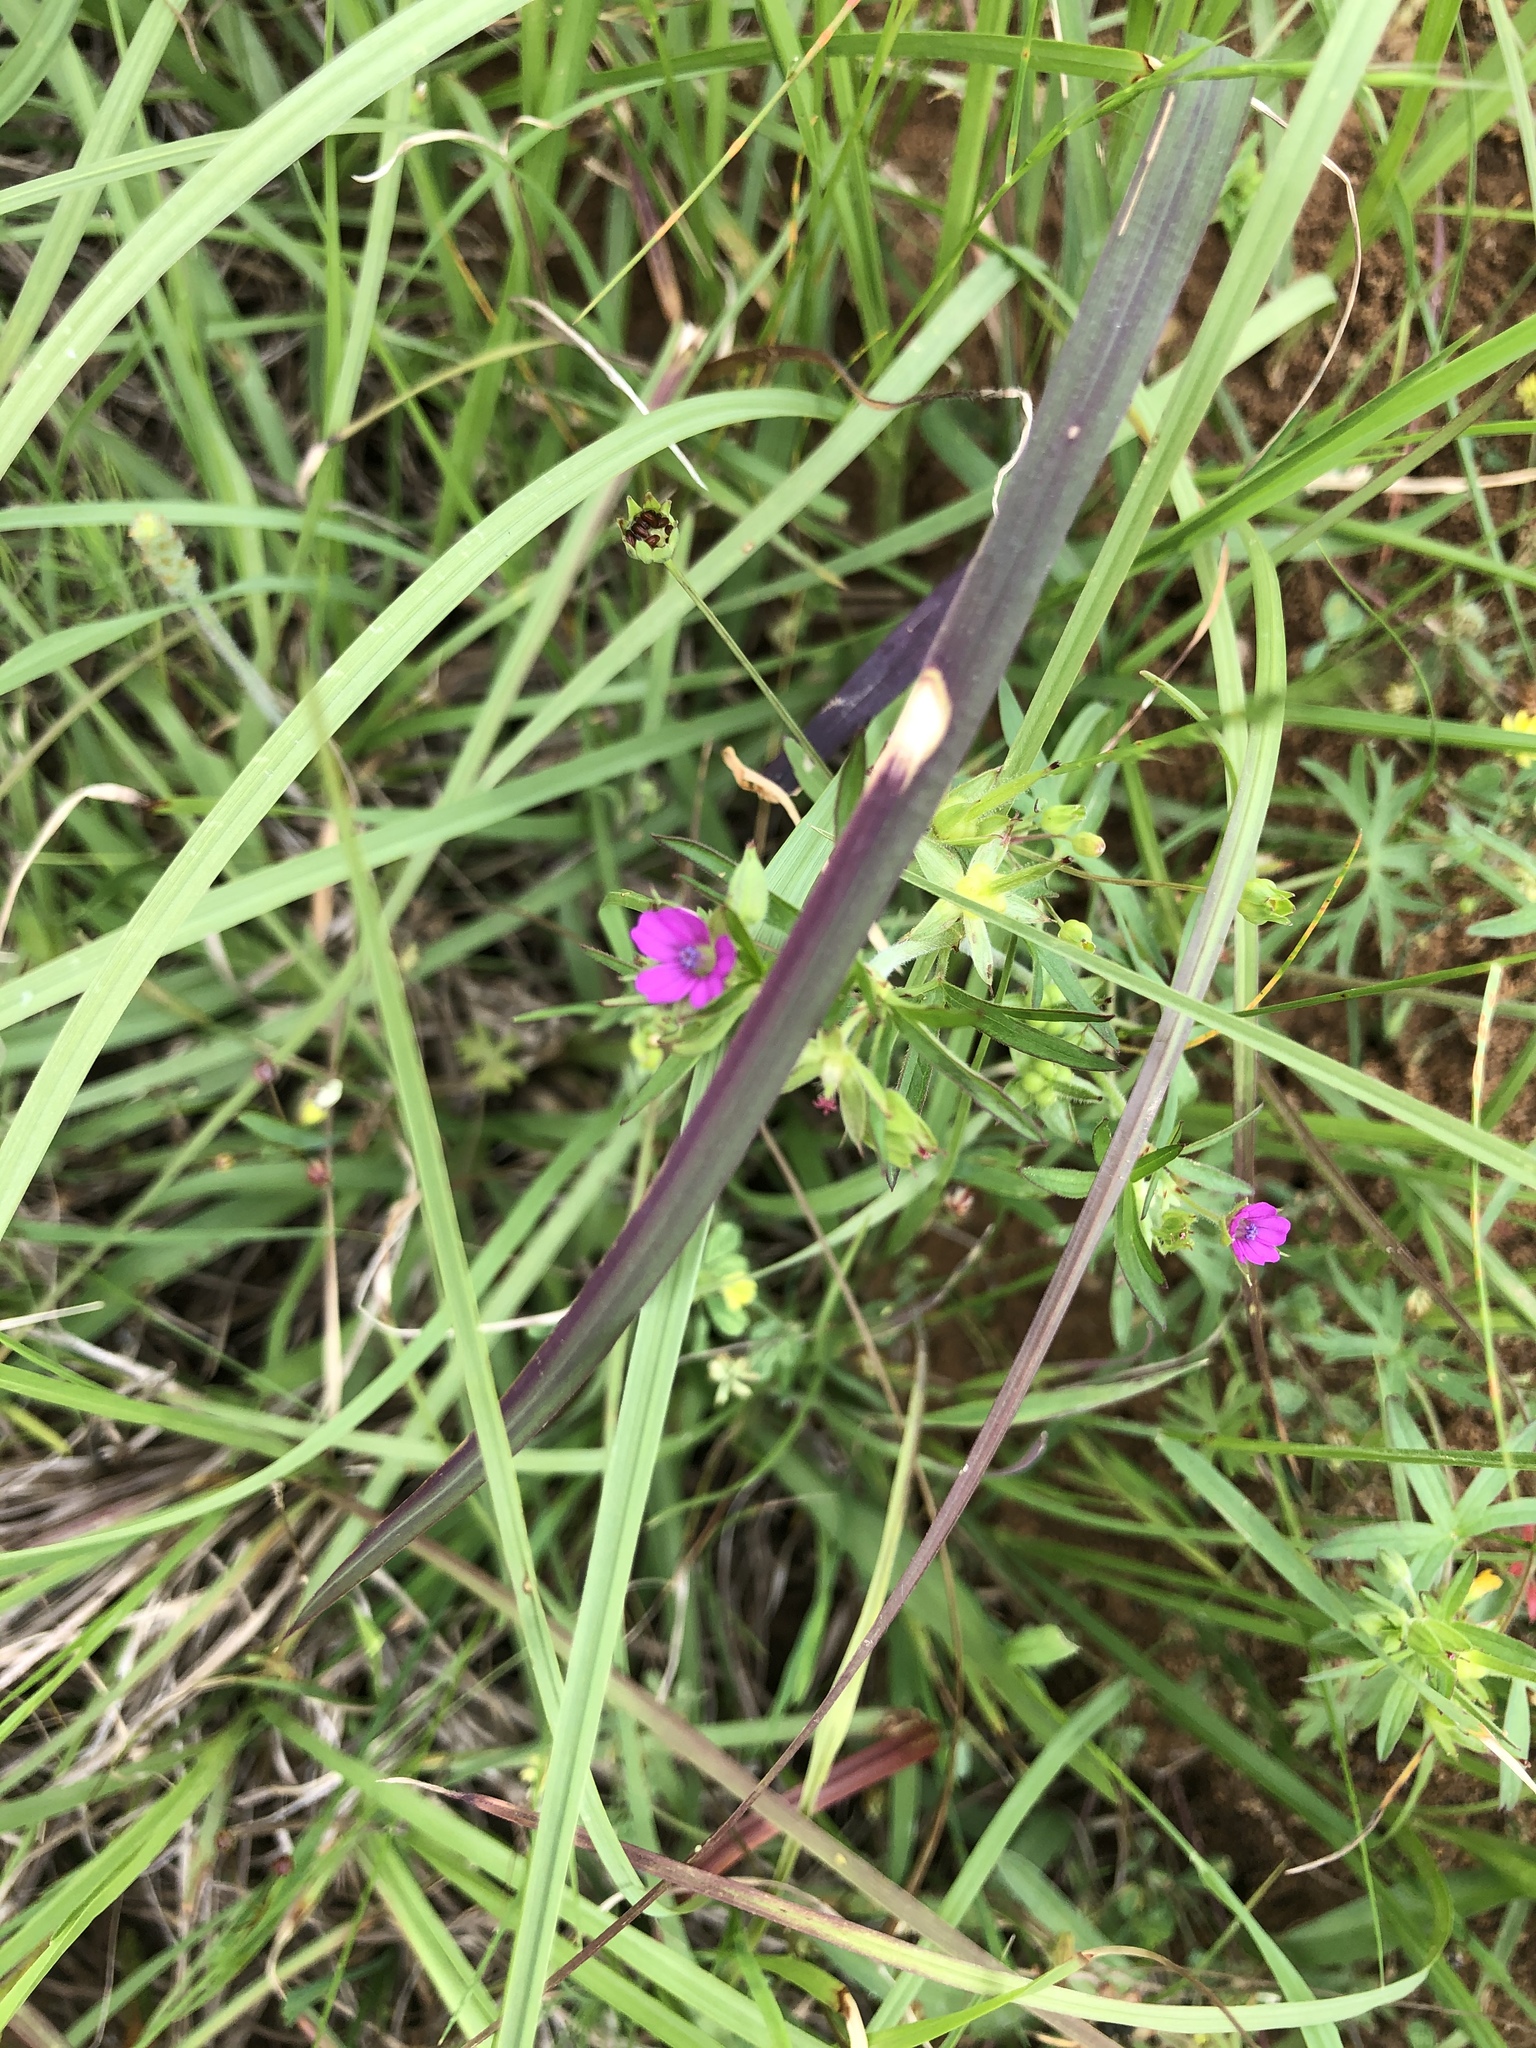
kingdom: Plantae
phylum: Tracheophyta
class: Magnoliopsida
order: Geraniales
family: Geraniaceae
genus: Geranium
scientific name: Geranium dissectum
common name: Cut-leaved crane's-bill
